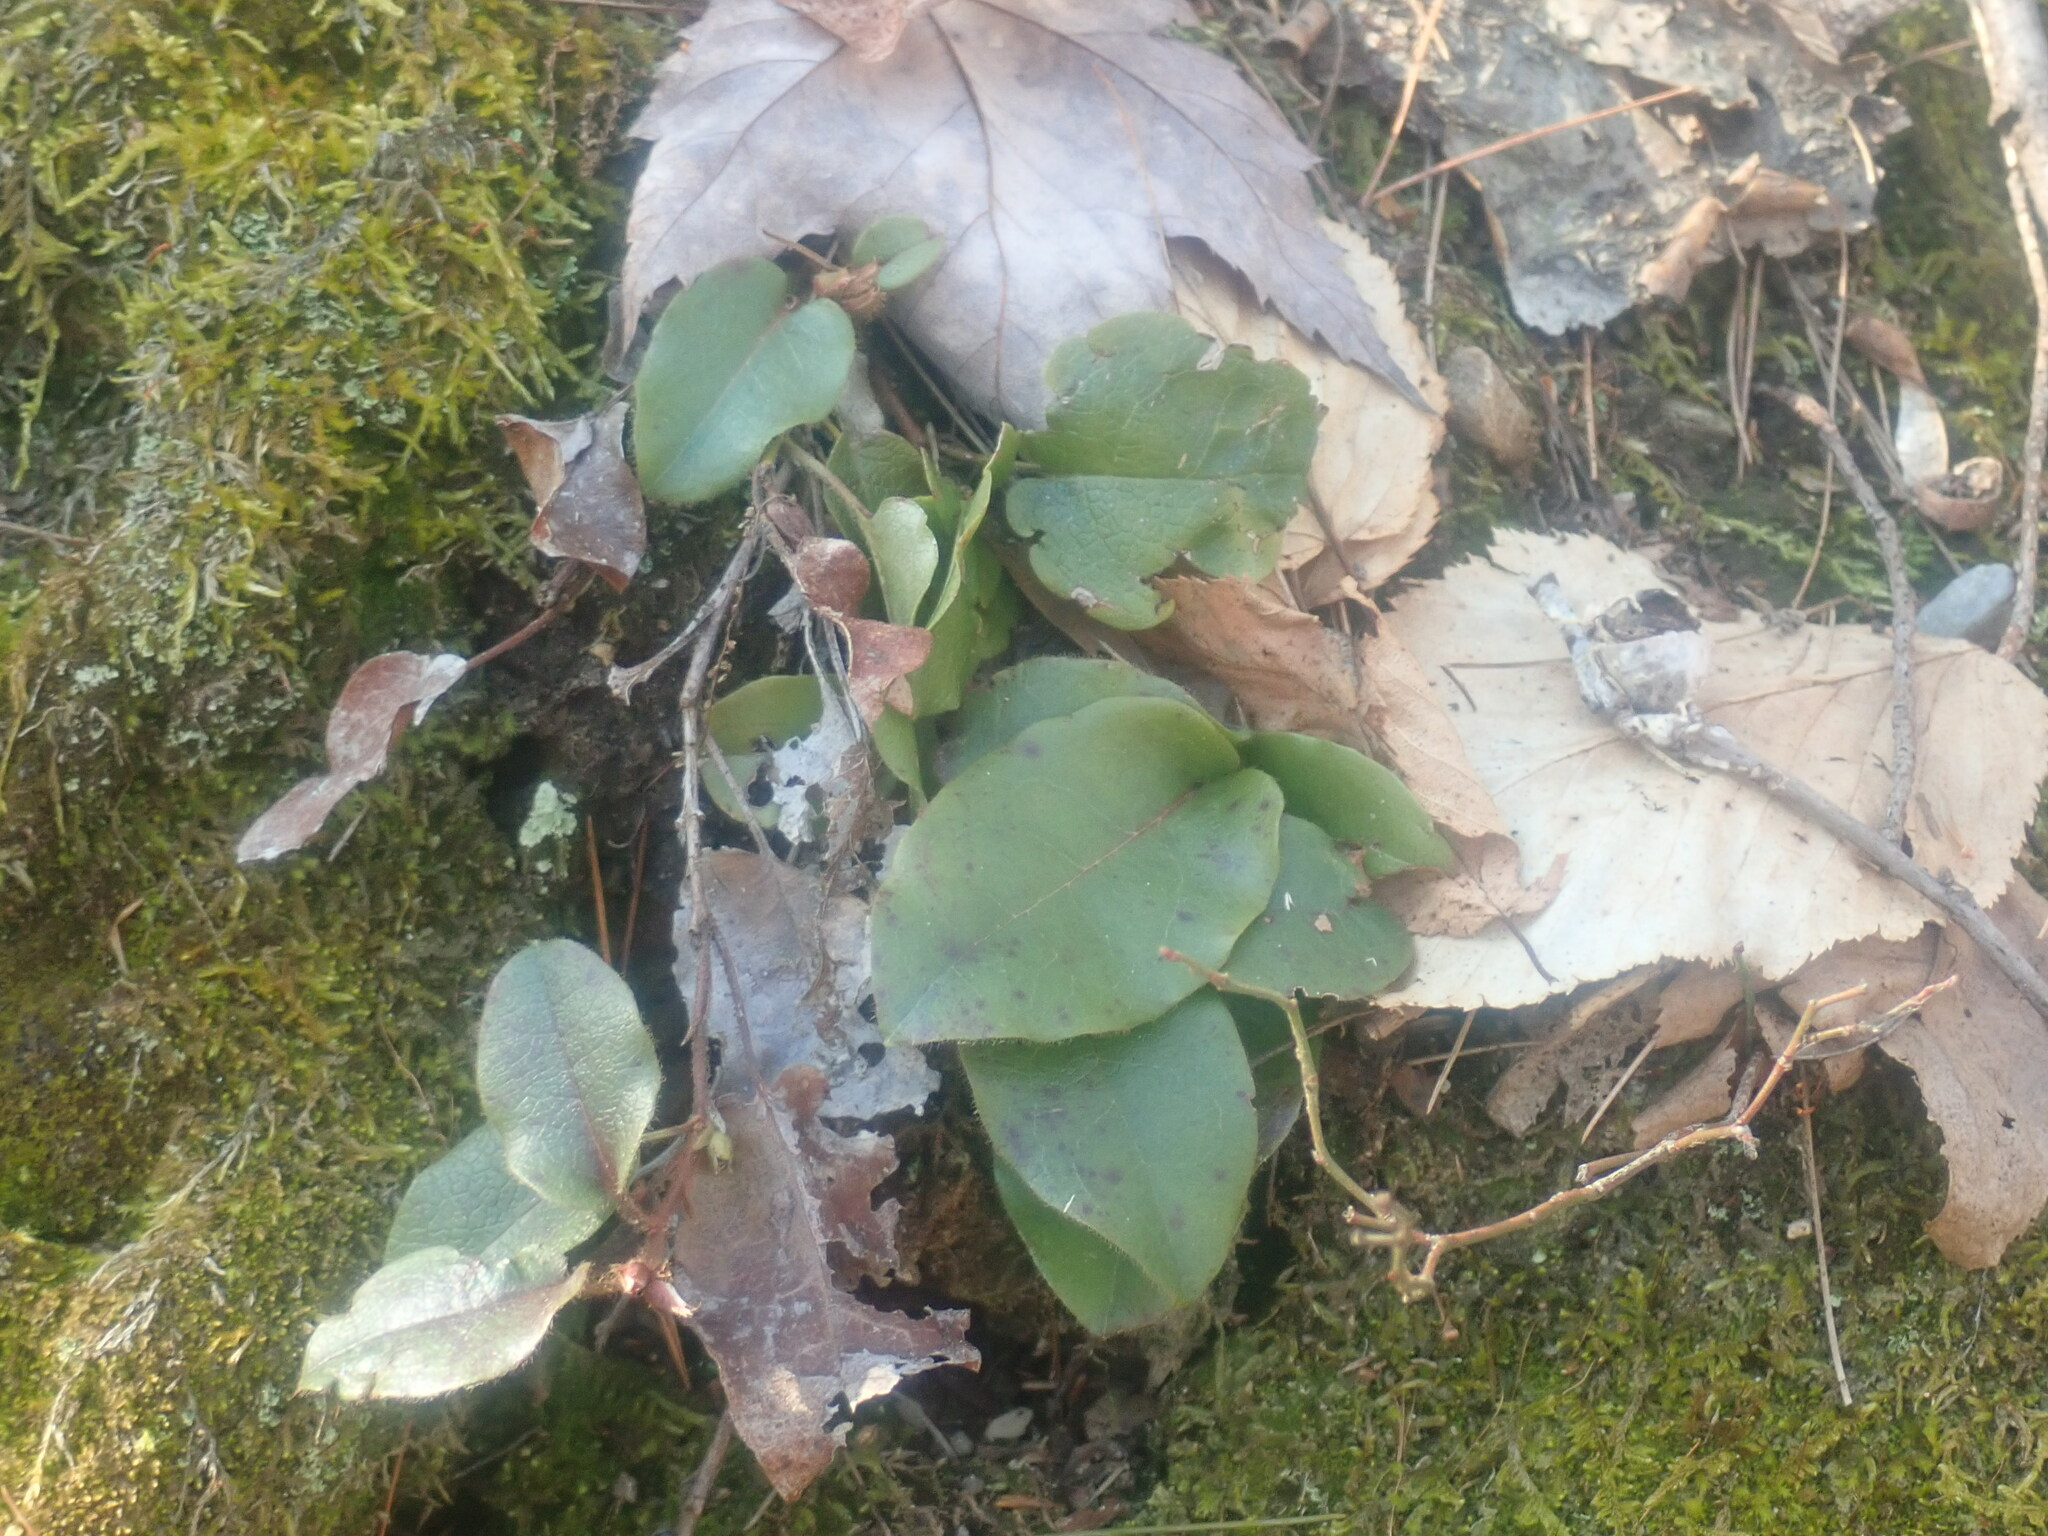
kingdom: Plantae
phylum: Tracheophyta
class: Magnoliopsida
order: Ericales
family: Ericaceae
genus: Epigaea
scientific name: Epigaea repens
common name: Gravelroot
